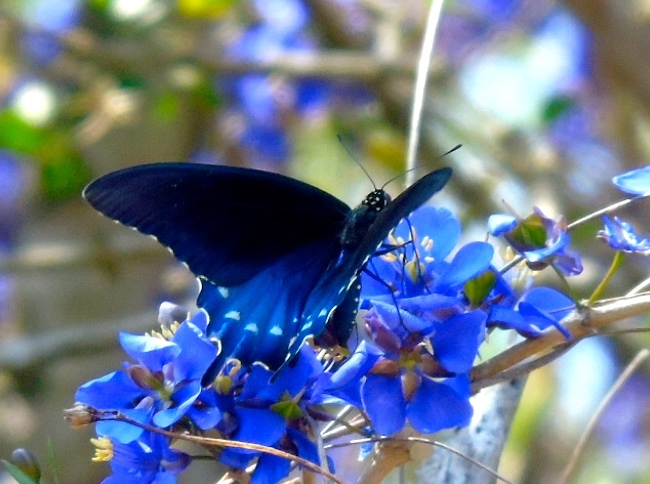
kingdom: Animalia
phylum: Arthropoda
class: Insecta
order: Lepidoptera
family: Papilionidae
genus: Battus
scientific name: Battus philenor
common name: Pipevine swallowtail
